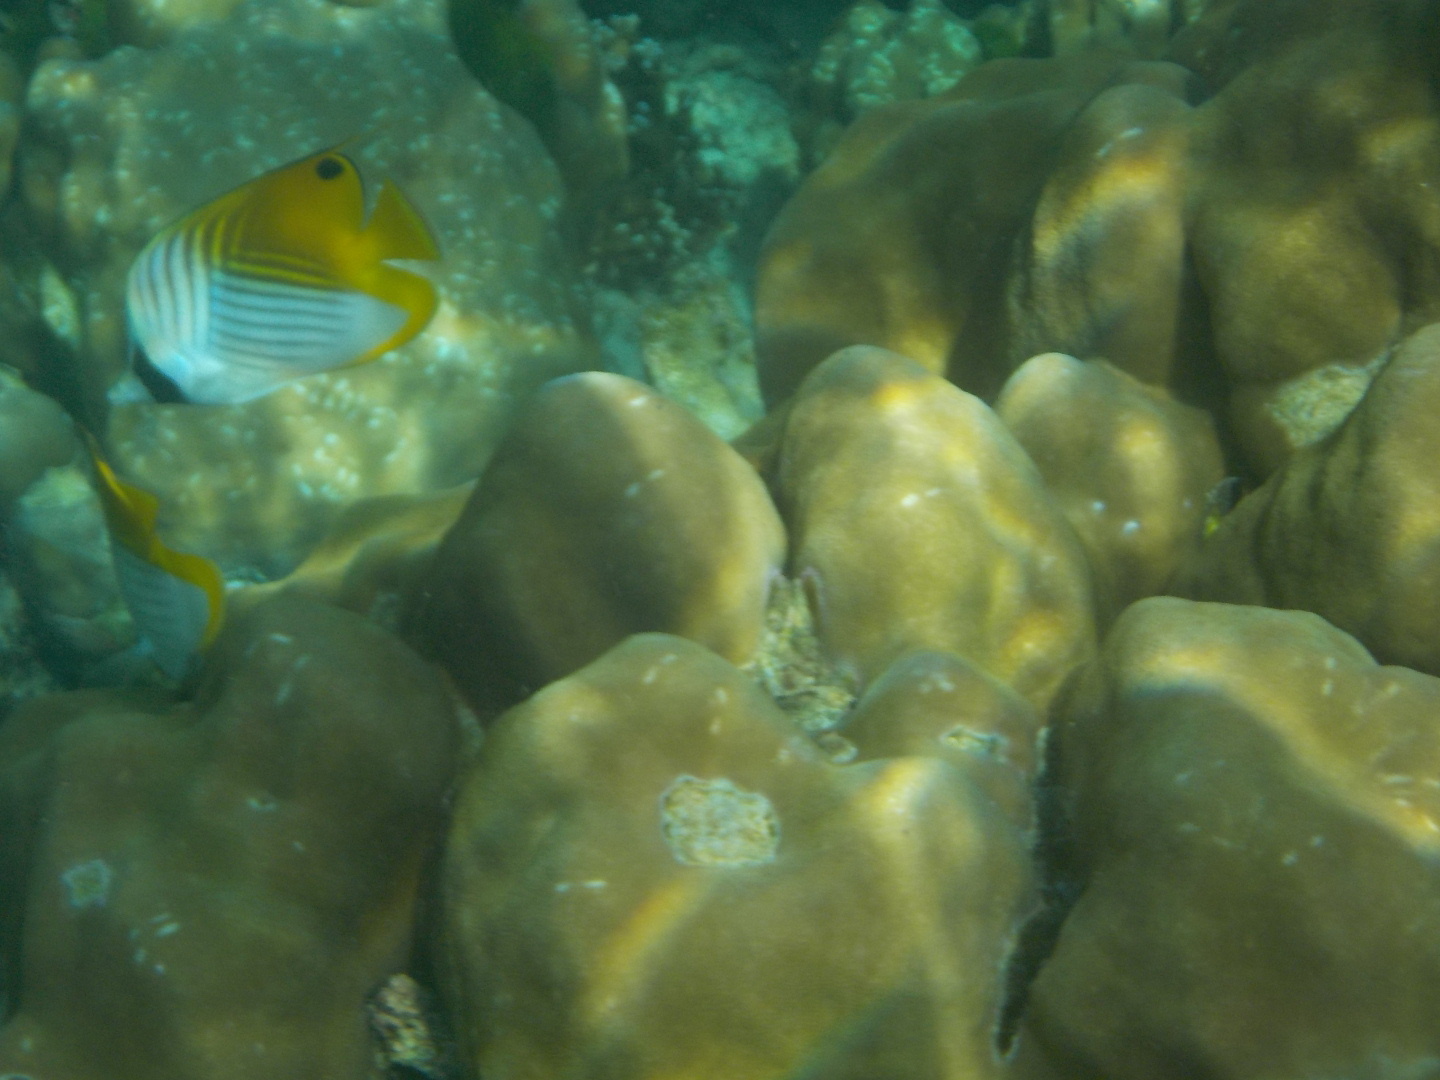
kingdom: Animalia
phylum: Chordata
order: Perciformes
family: Chaetodontidae
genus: Chaetodon
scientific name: Chaetodon auriga
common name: Threadfin butterflyfish
